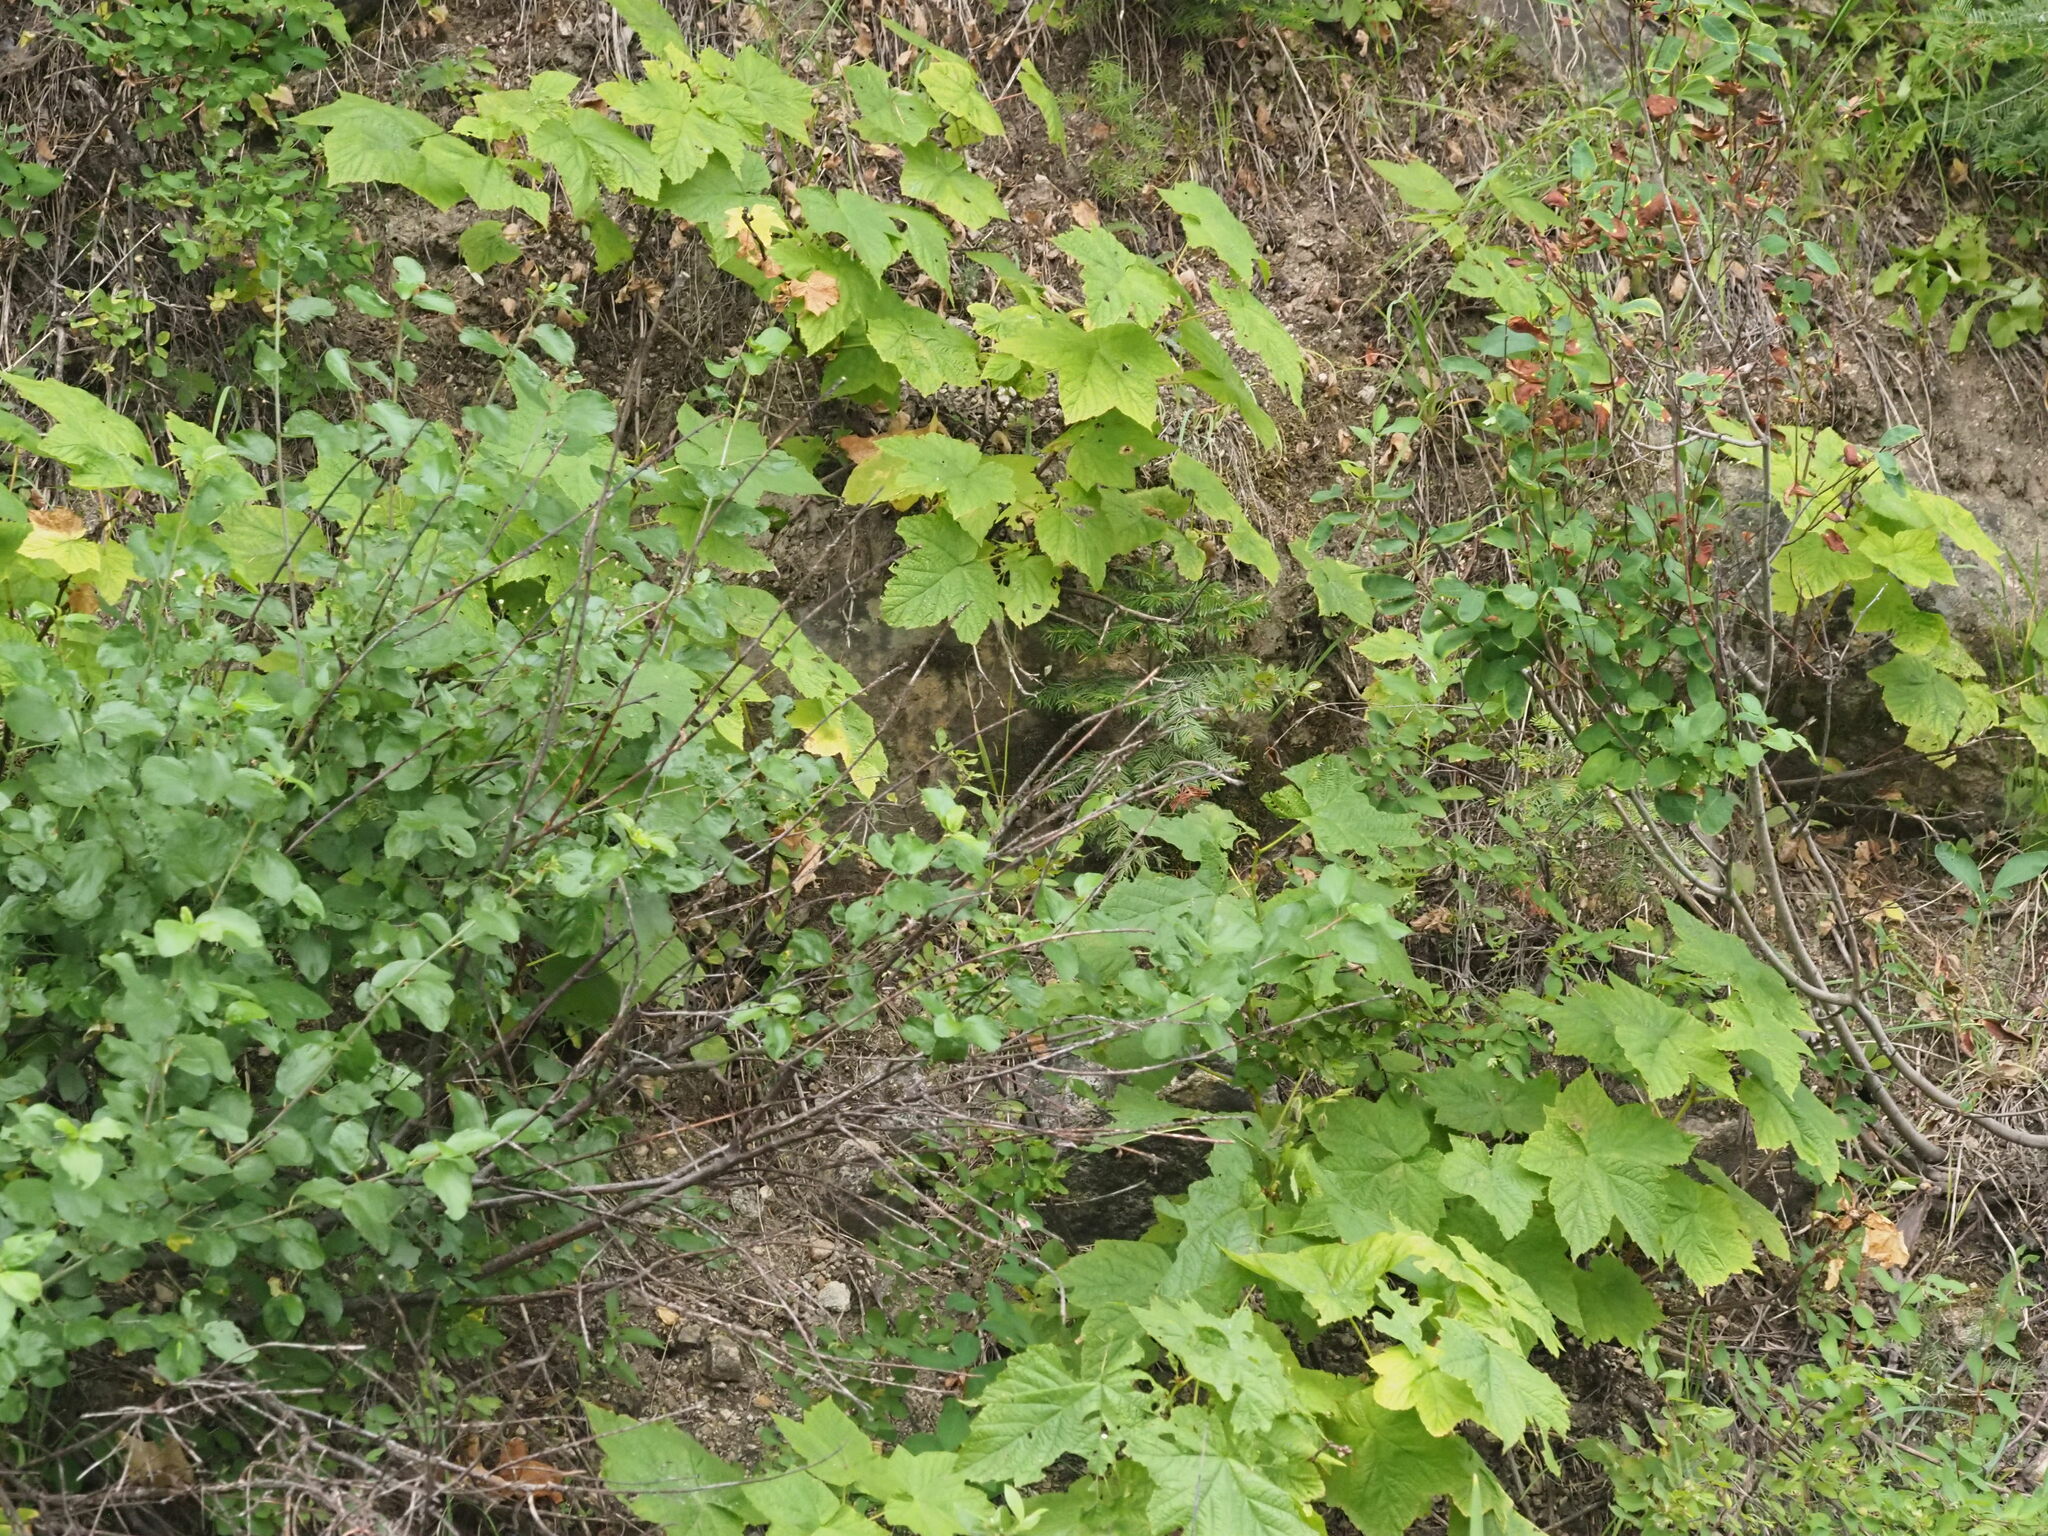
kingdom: Plantae
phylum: Tracheophyta
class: Magnoliopsida
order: Rosales
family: Rosaceae
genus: Rubus
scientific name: Rubus parviflorus
